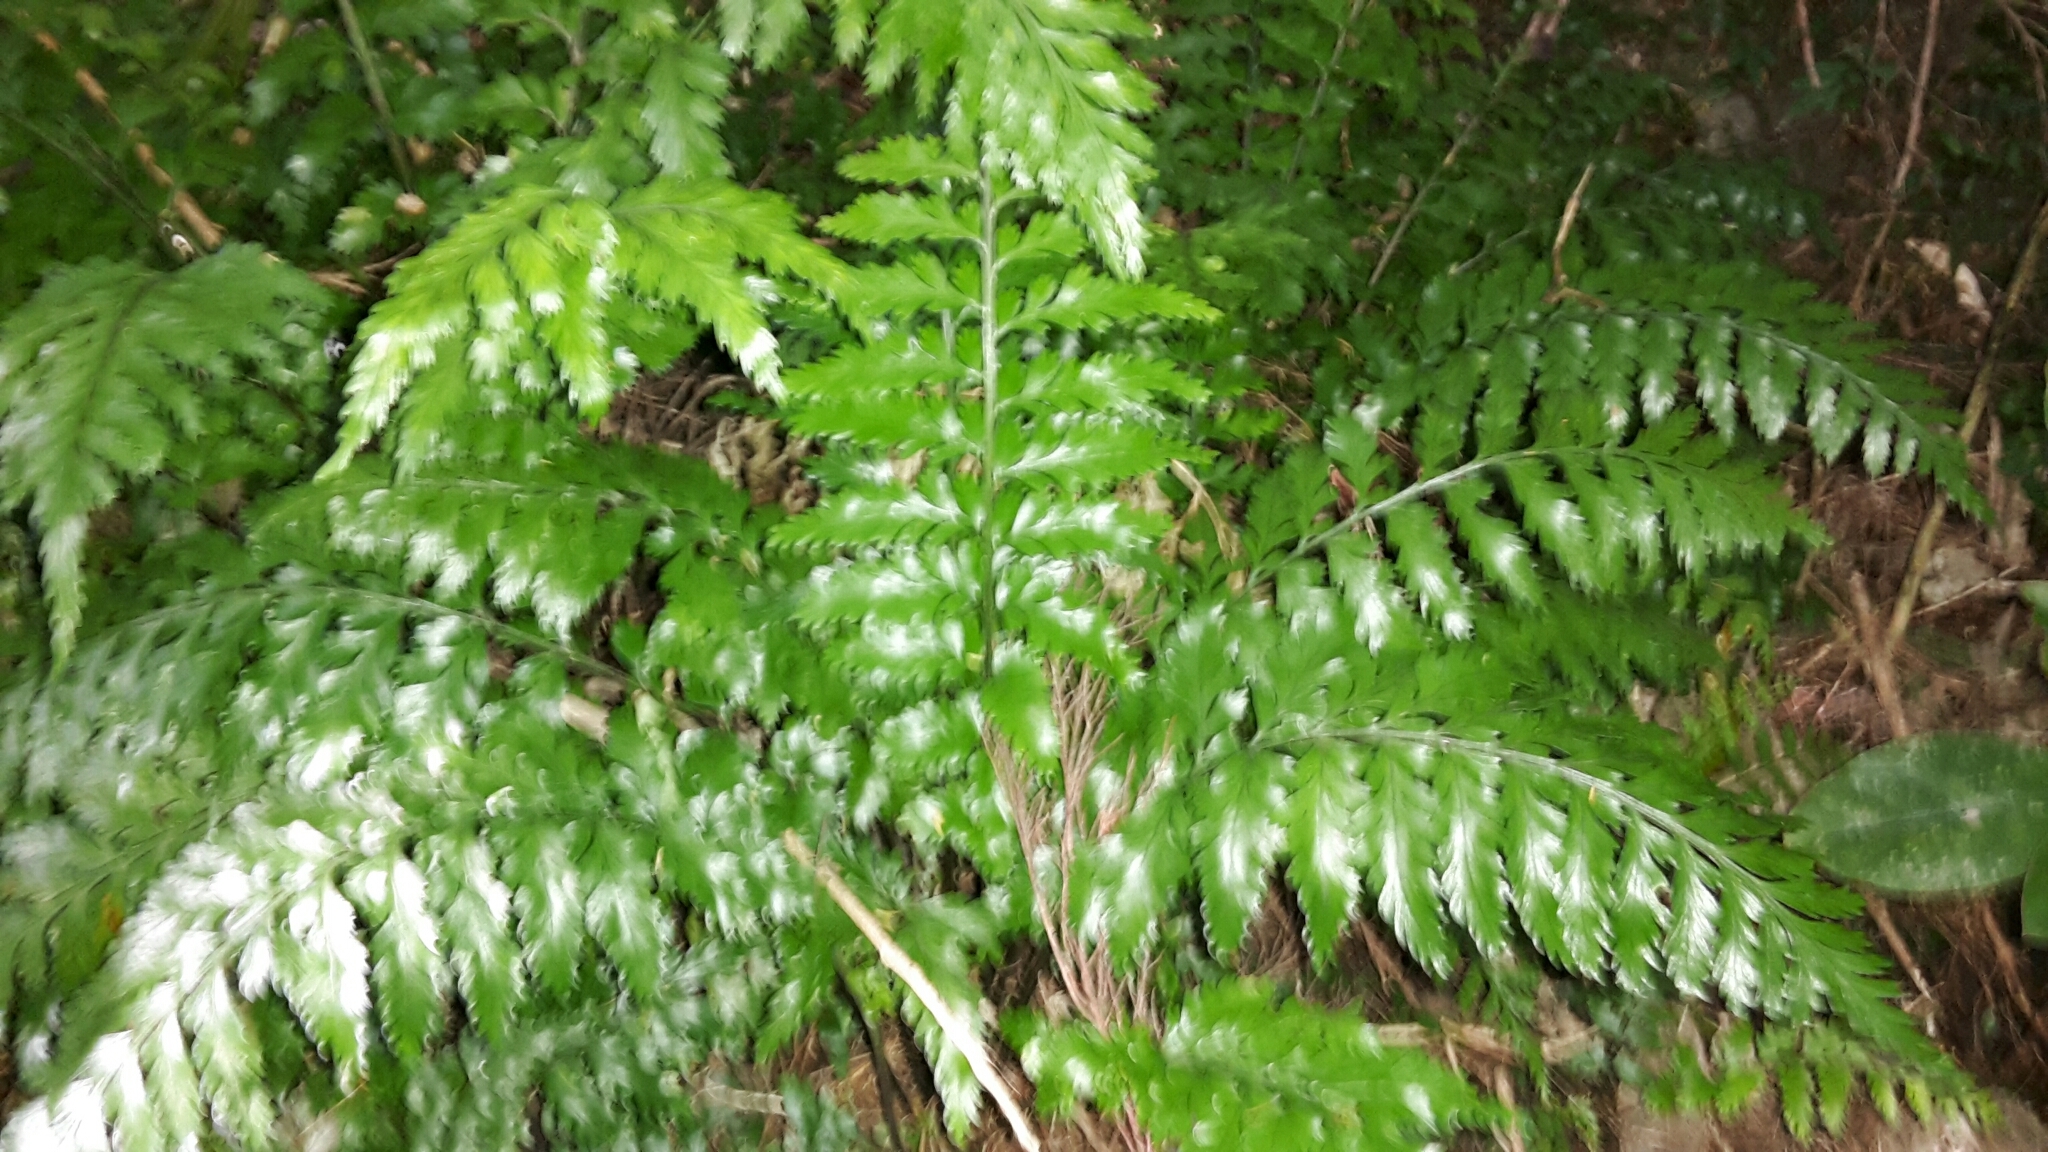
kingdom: Plantae
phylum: Tracheophyta
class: Polypodiopsida
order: Polypodiales
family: Aspleniaceae
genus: Asplenium
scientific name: Asplenium lamprophyllum
